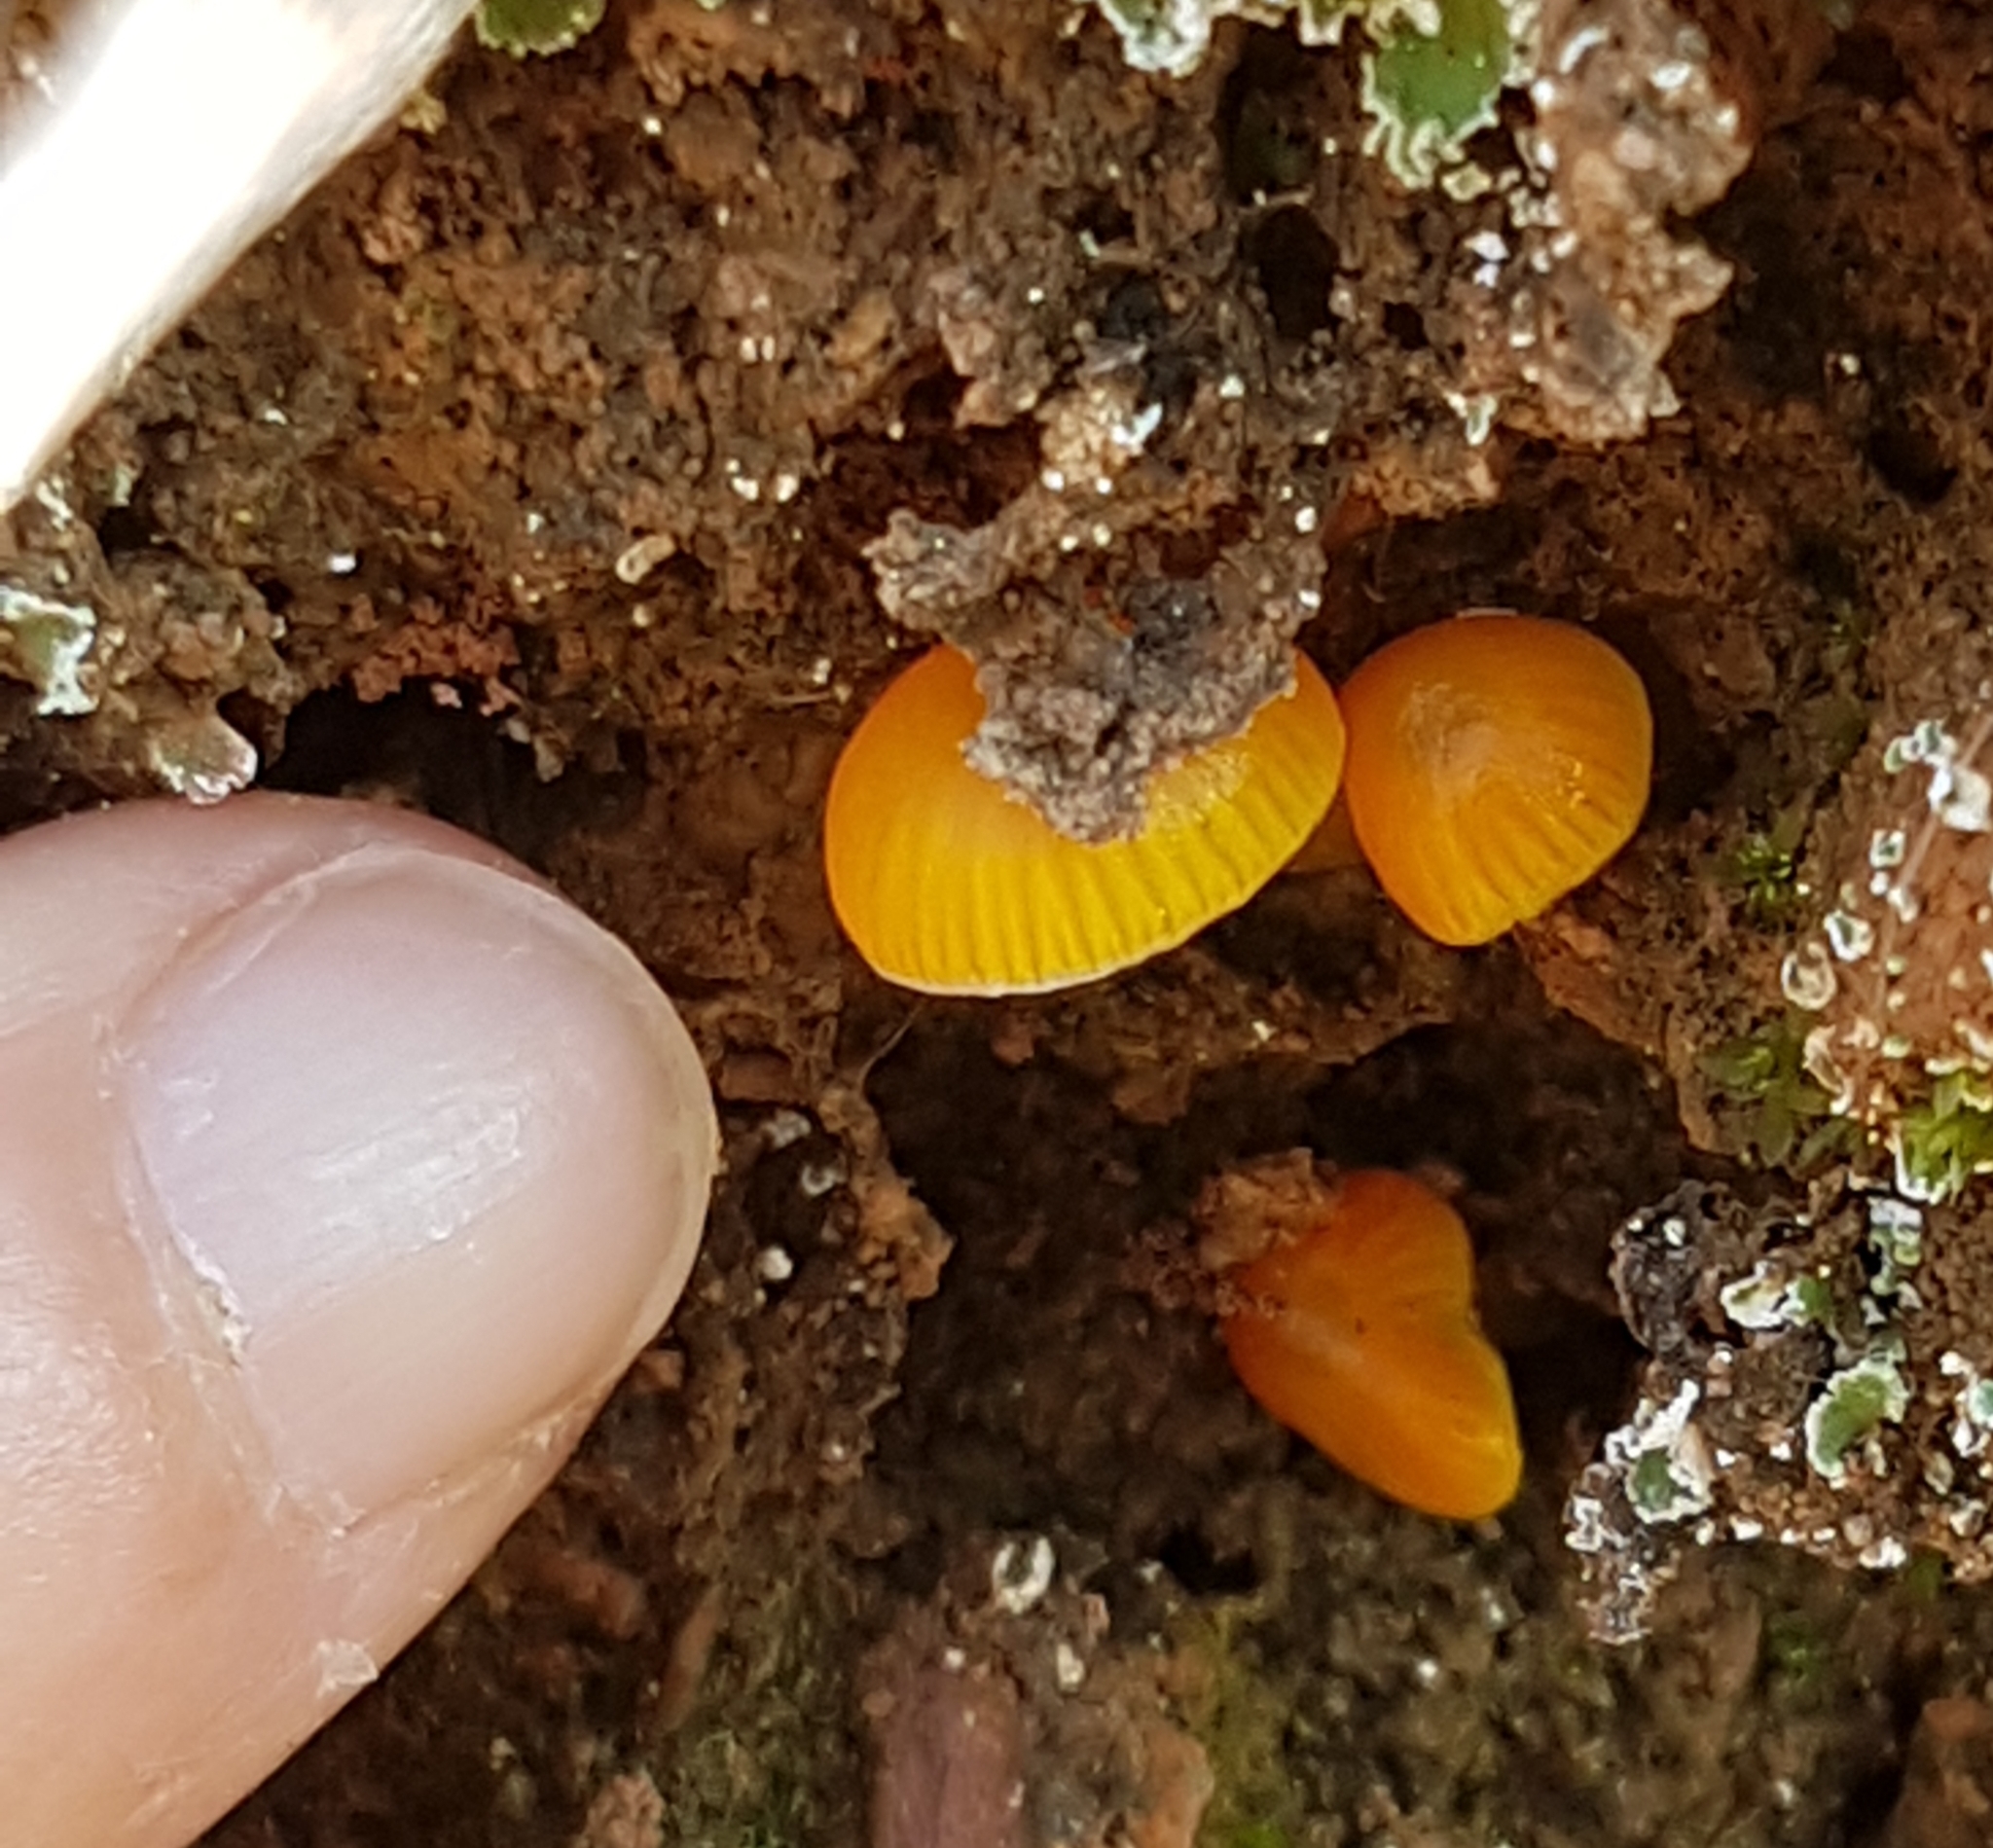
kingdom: Fungi
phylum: Basidiomycota
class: Agaricomycetes
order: Agaricales
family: Physalacriaceae
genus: Flammulina
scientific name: Flammulina
